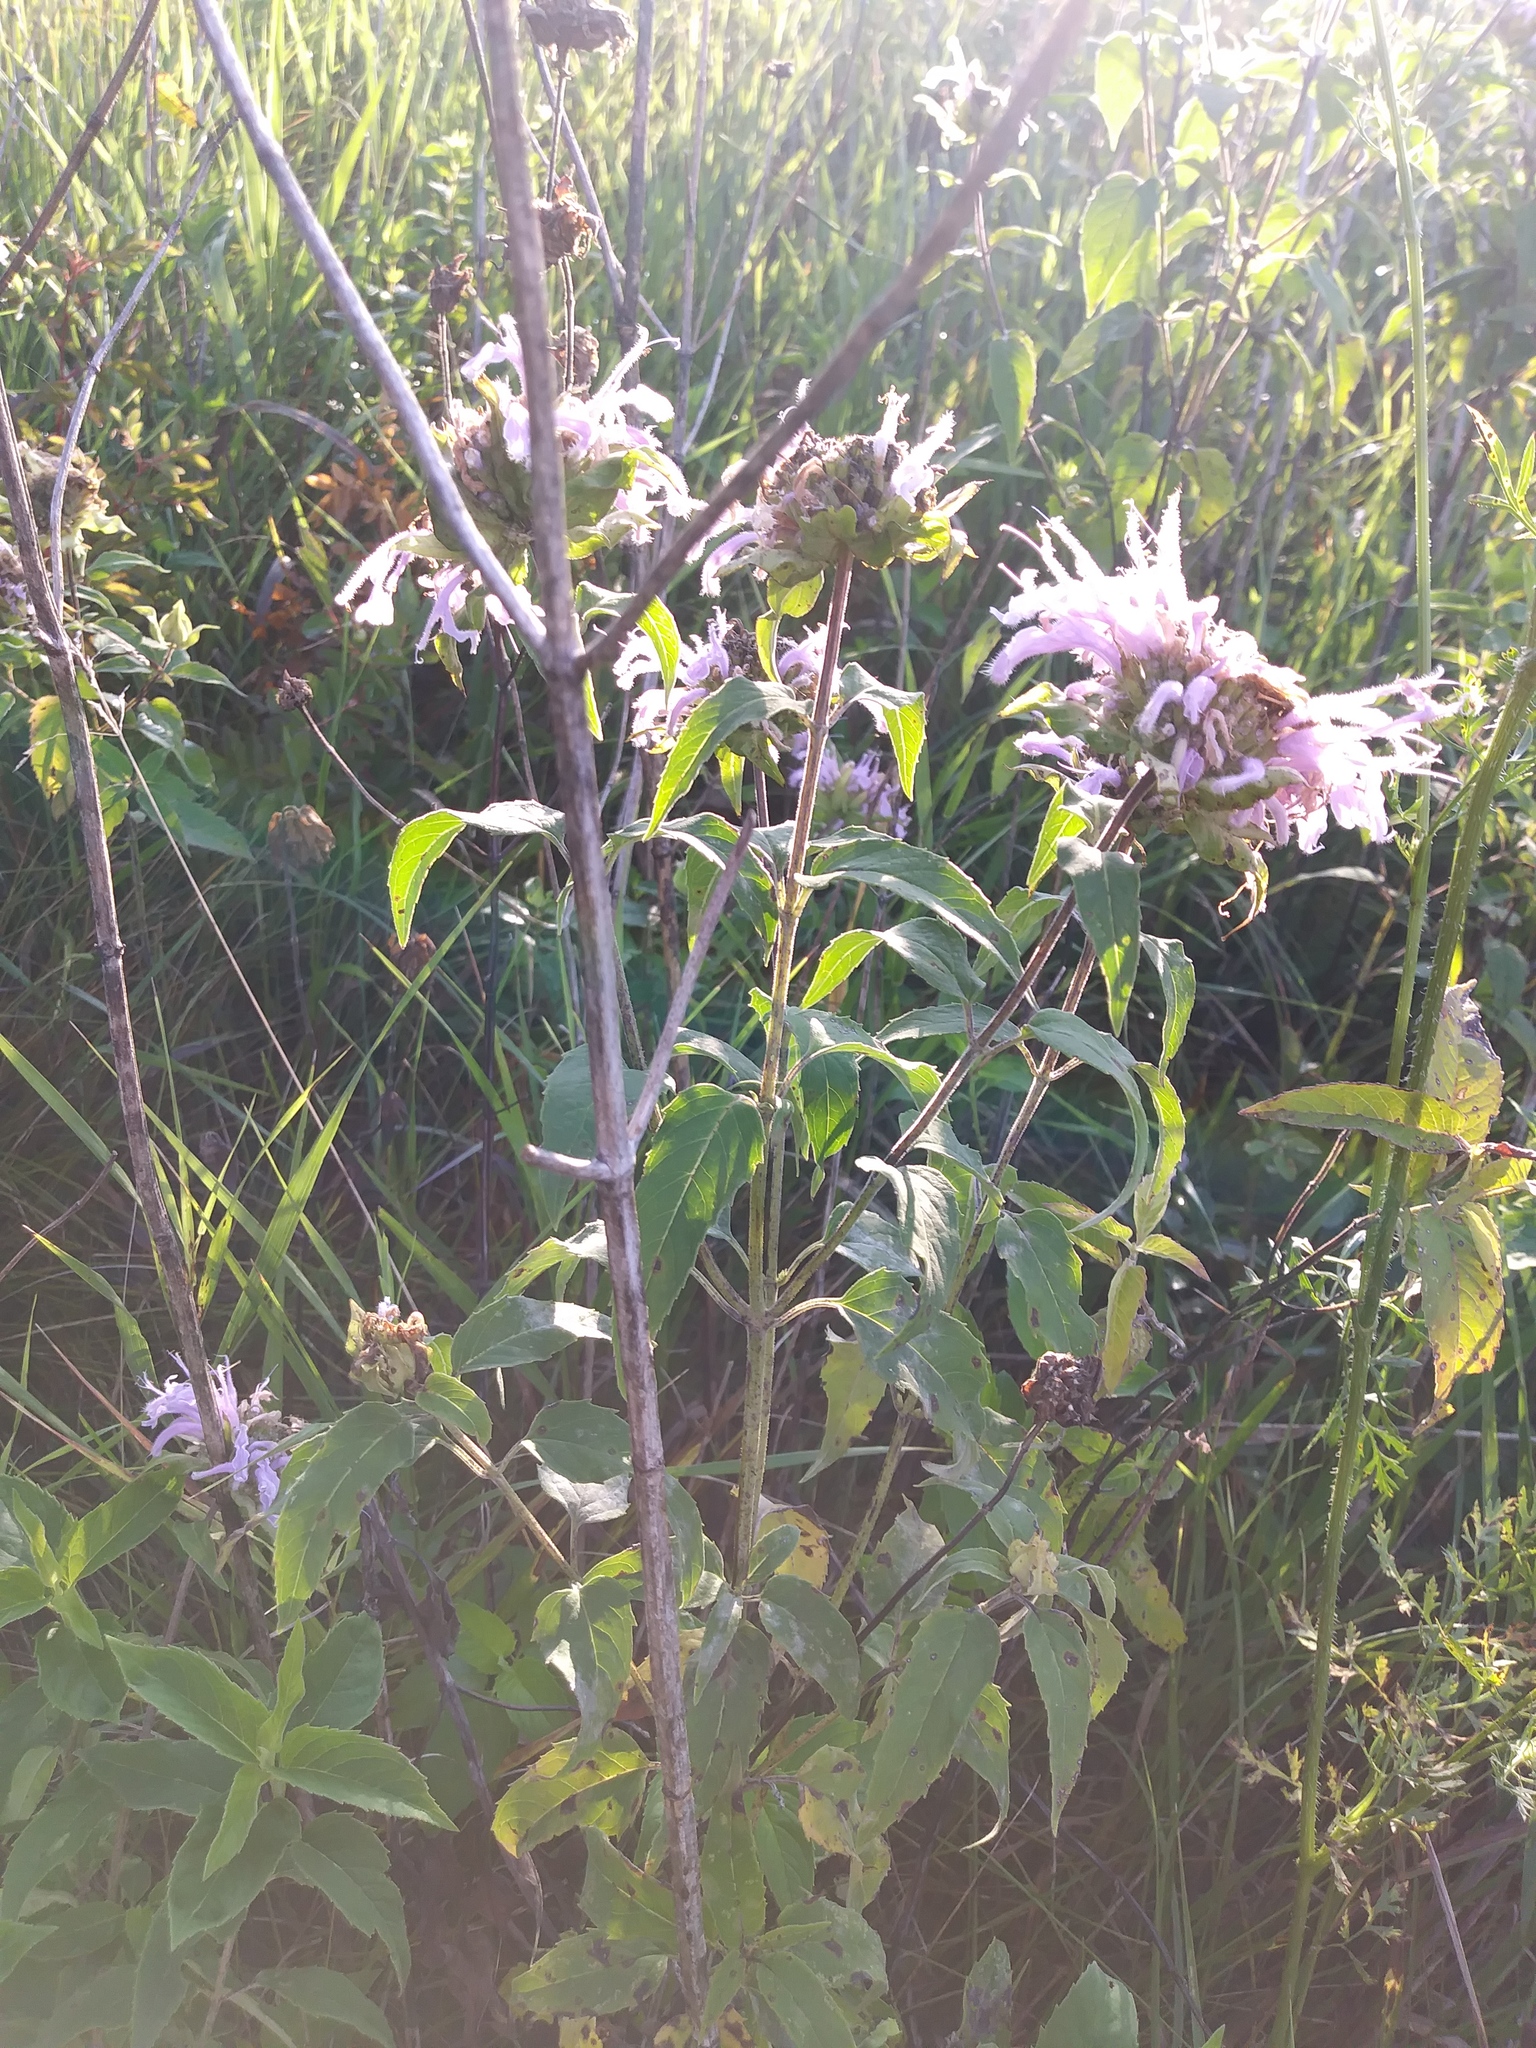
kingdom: Plantae
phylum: Tracheophyta
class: Magnoliopsida
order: Lamiales
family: Lamiaceae
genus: Monarda
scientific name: Monarda fistulosa
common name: Purple beebalm
